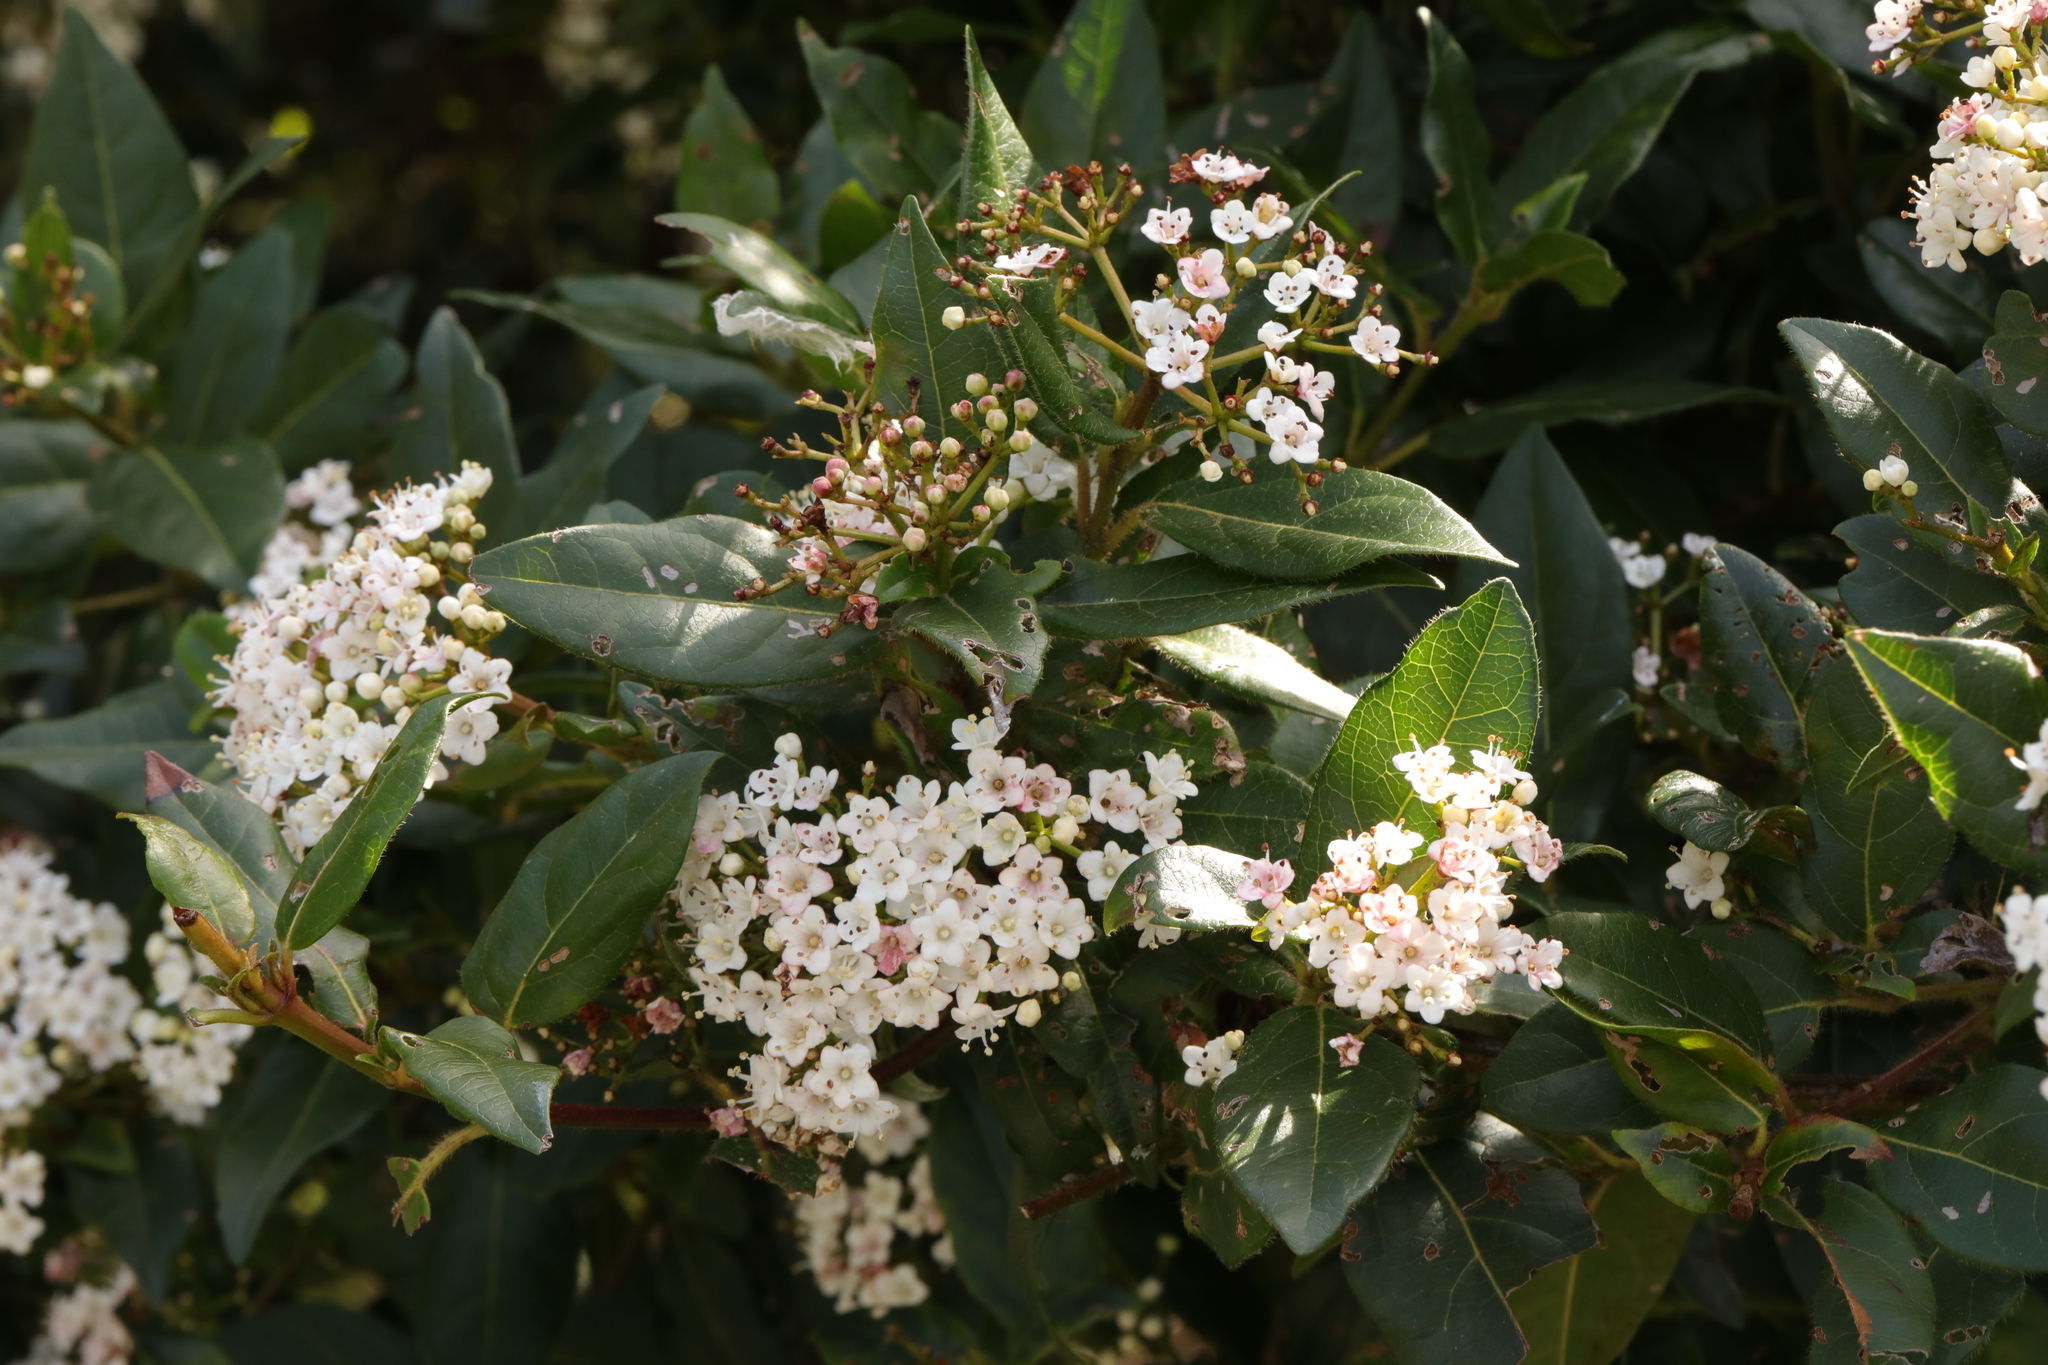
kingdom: Plantae
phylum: Tracheophyta
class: Magnoliopsida
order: Dipsacales
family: Viburnaceae
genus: Viburnum
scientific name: Viburnum tinus
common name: Laurustinus
